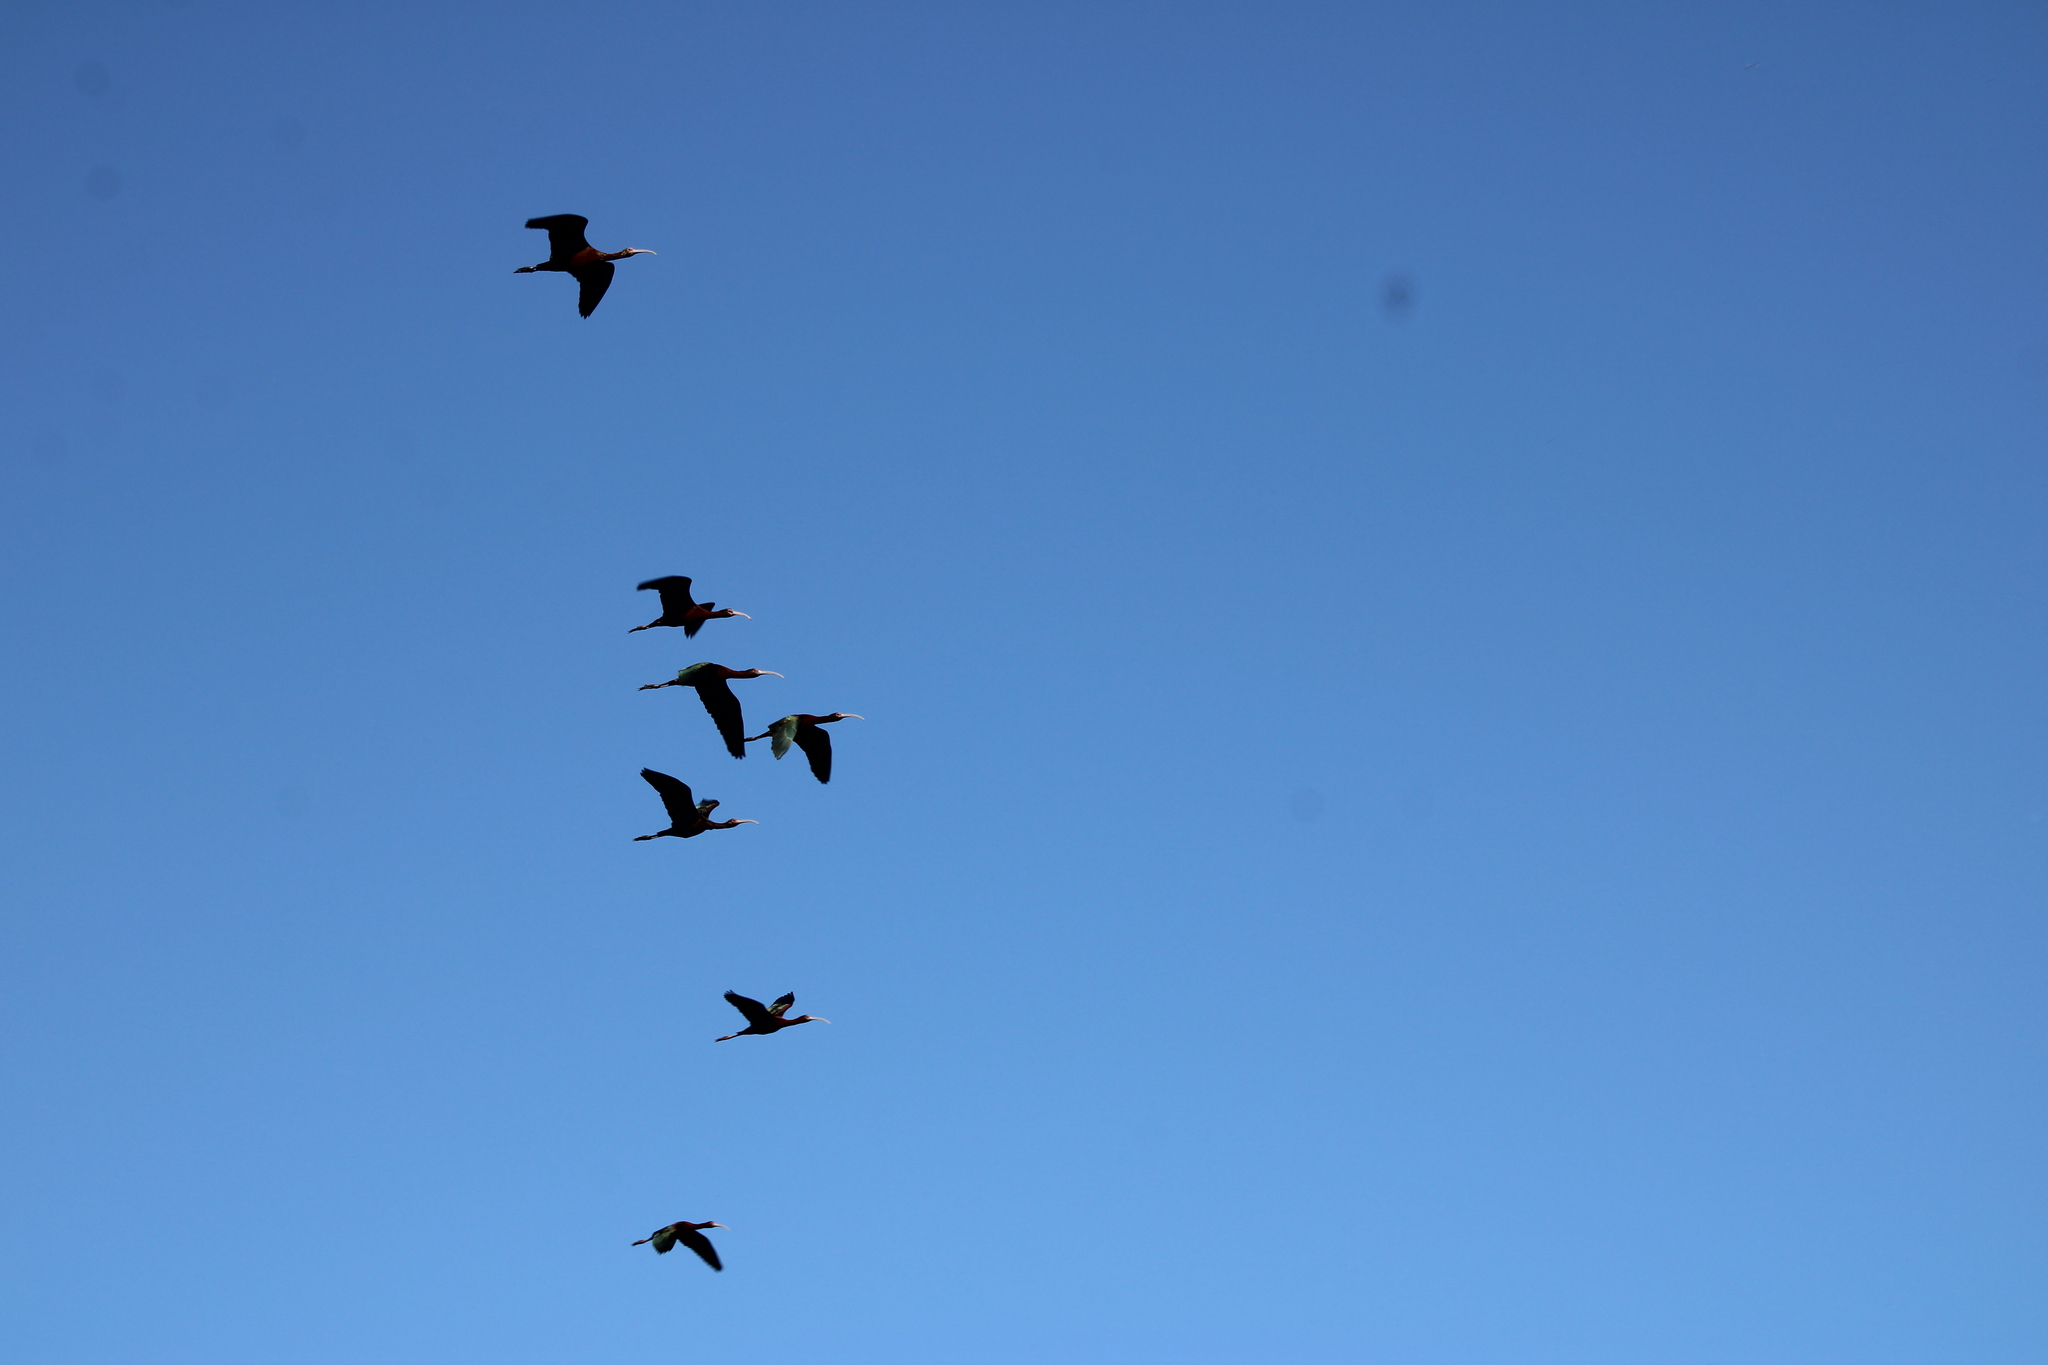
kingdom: Animalia
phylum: Chordata
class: Aves
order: Pelecaniformes
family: Threskiornithidae
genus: Phimosus
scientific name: Phimosus infuscatus
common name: Bare-faced ibis
